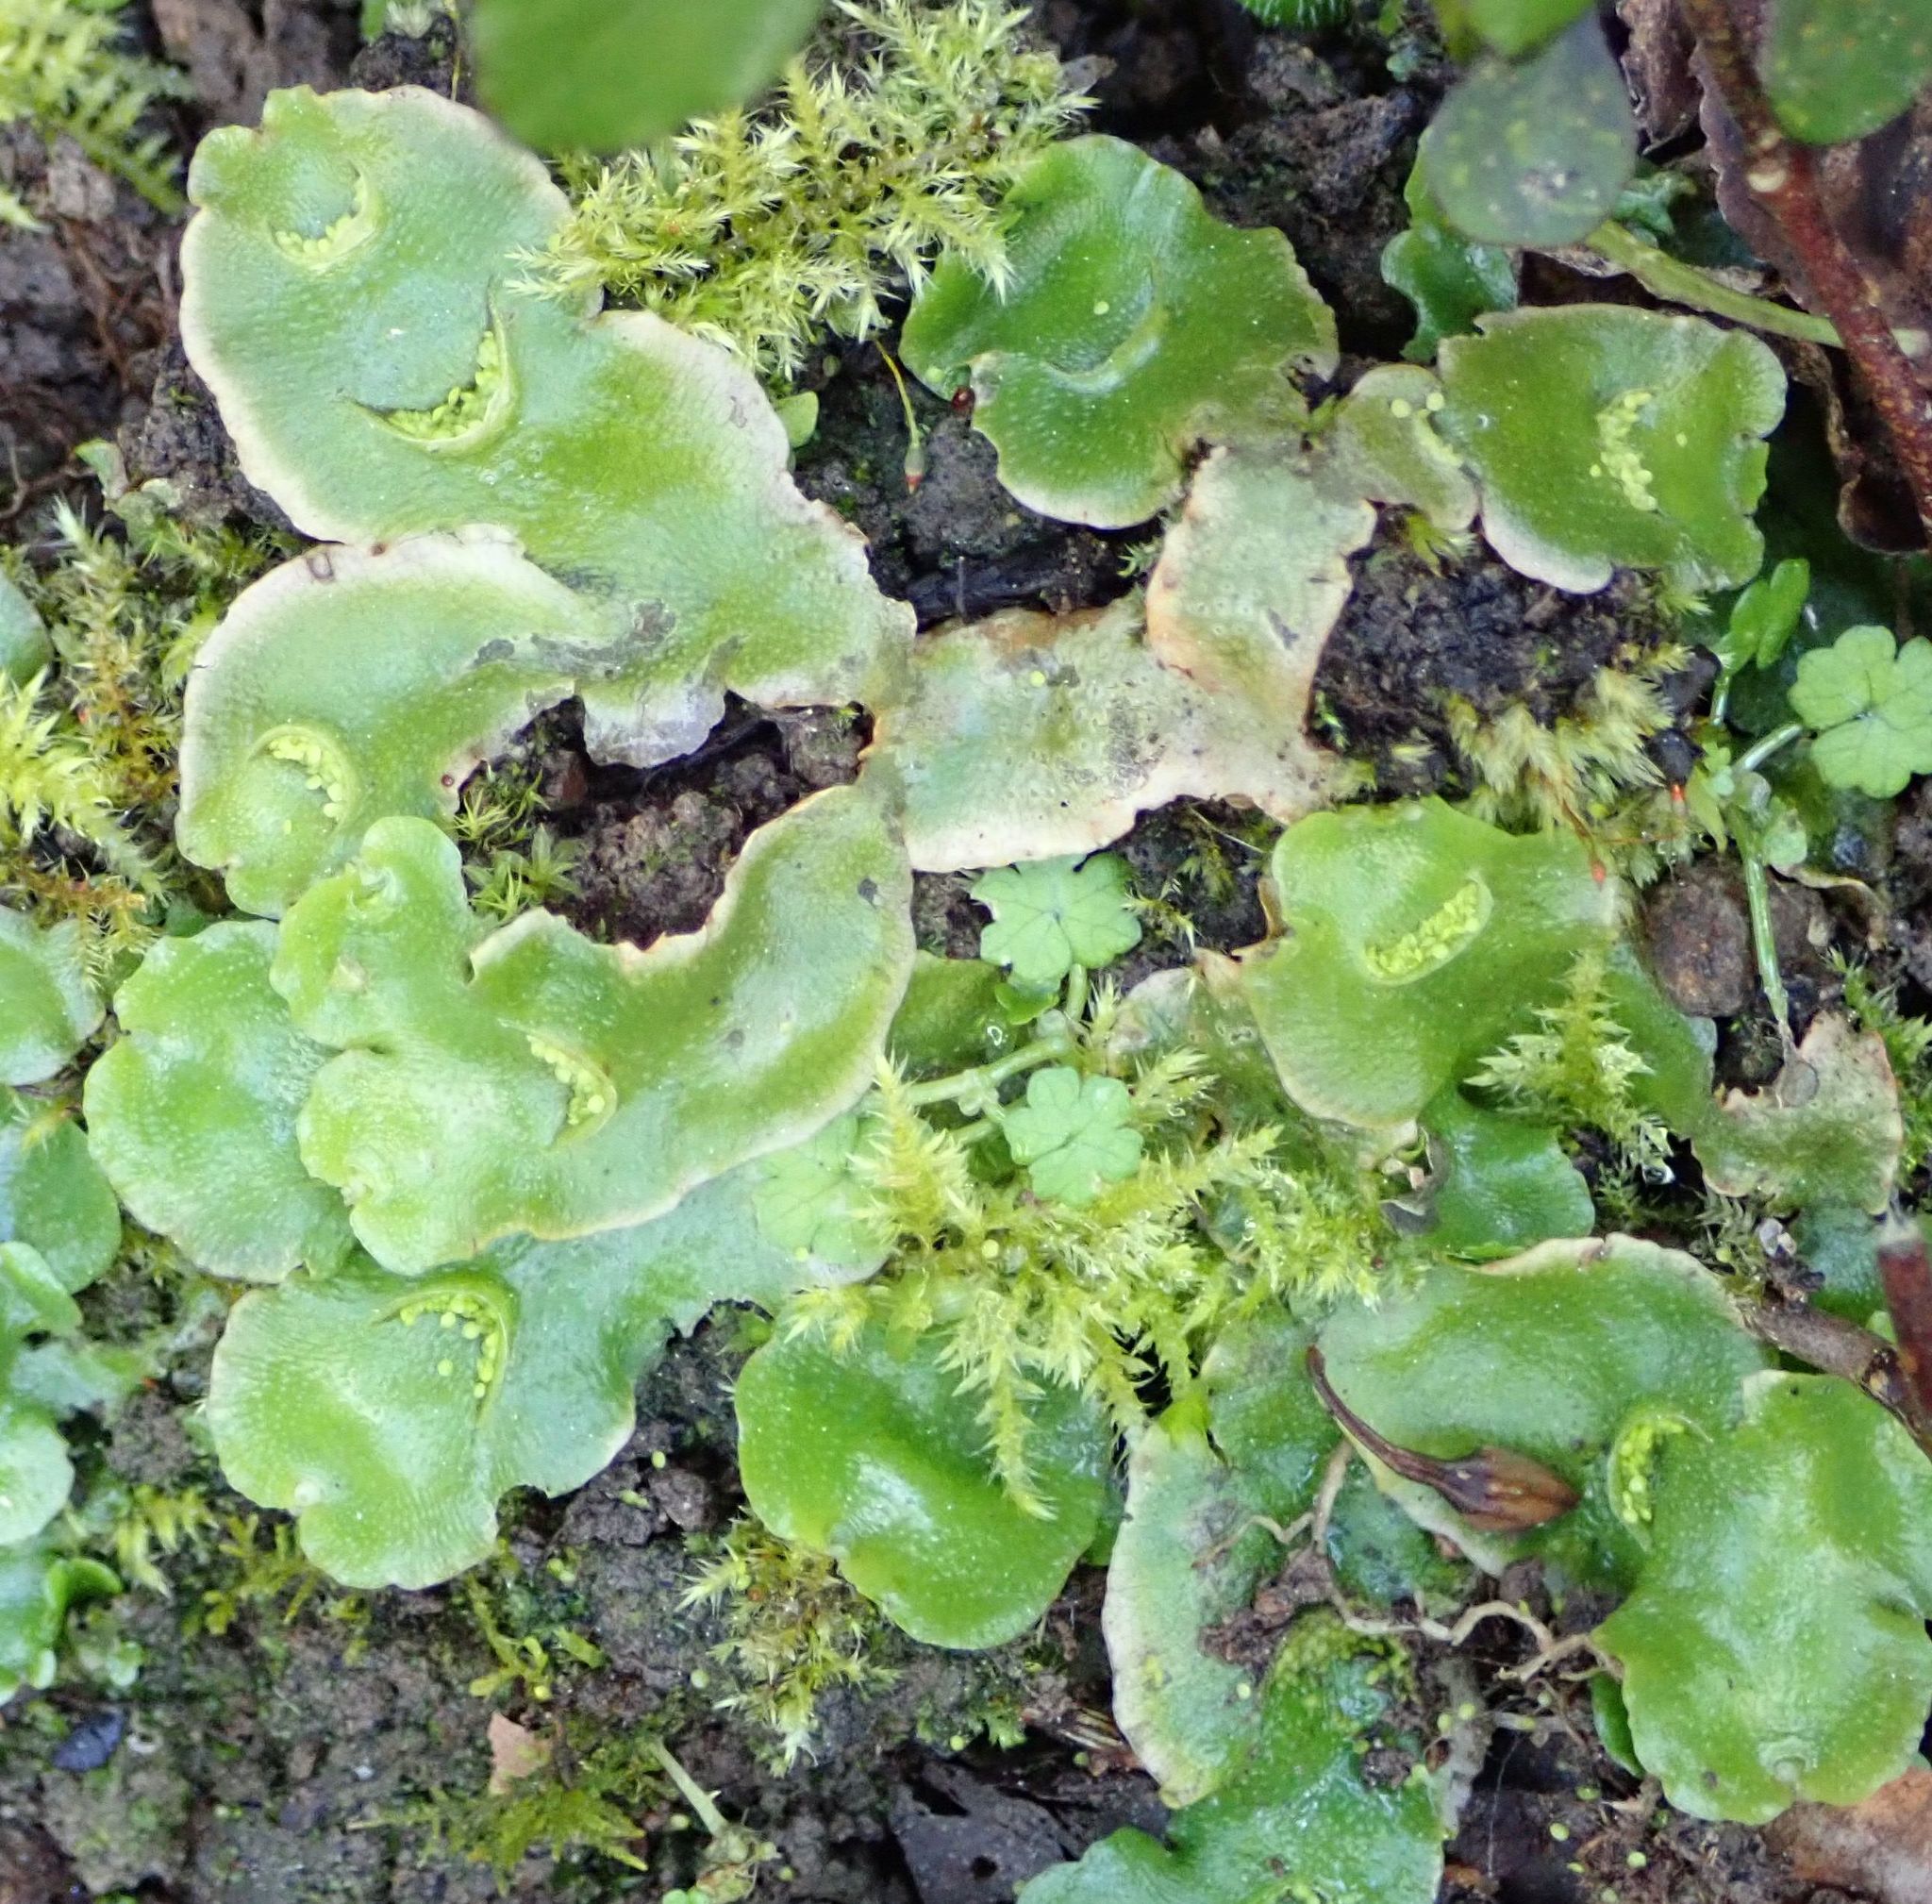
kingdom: Plantae
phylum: Marchantiophyta
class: Marchantiopsida
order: Lunulariales
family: Lunulariaceae
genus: Lunularia
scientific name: Lunularia cruciata
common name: Crescent-cup liverwort
